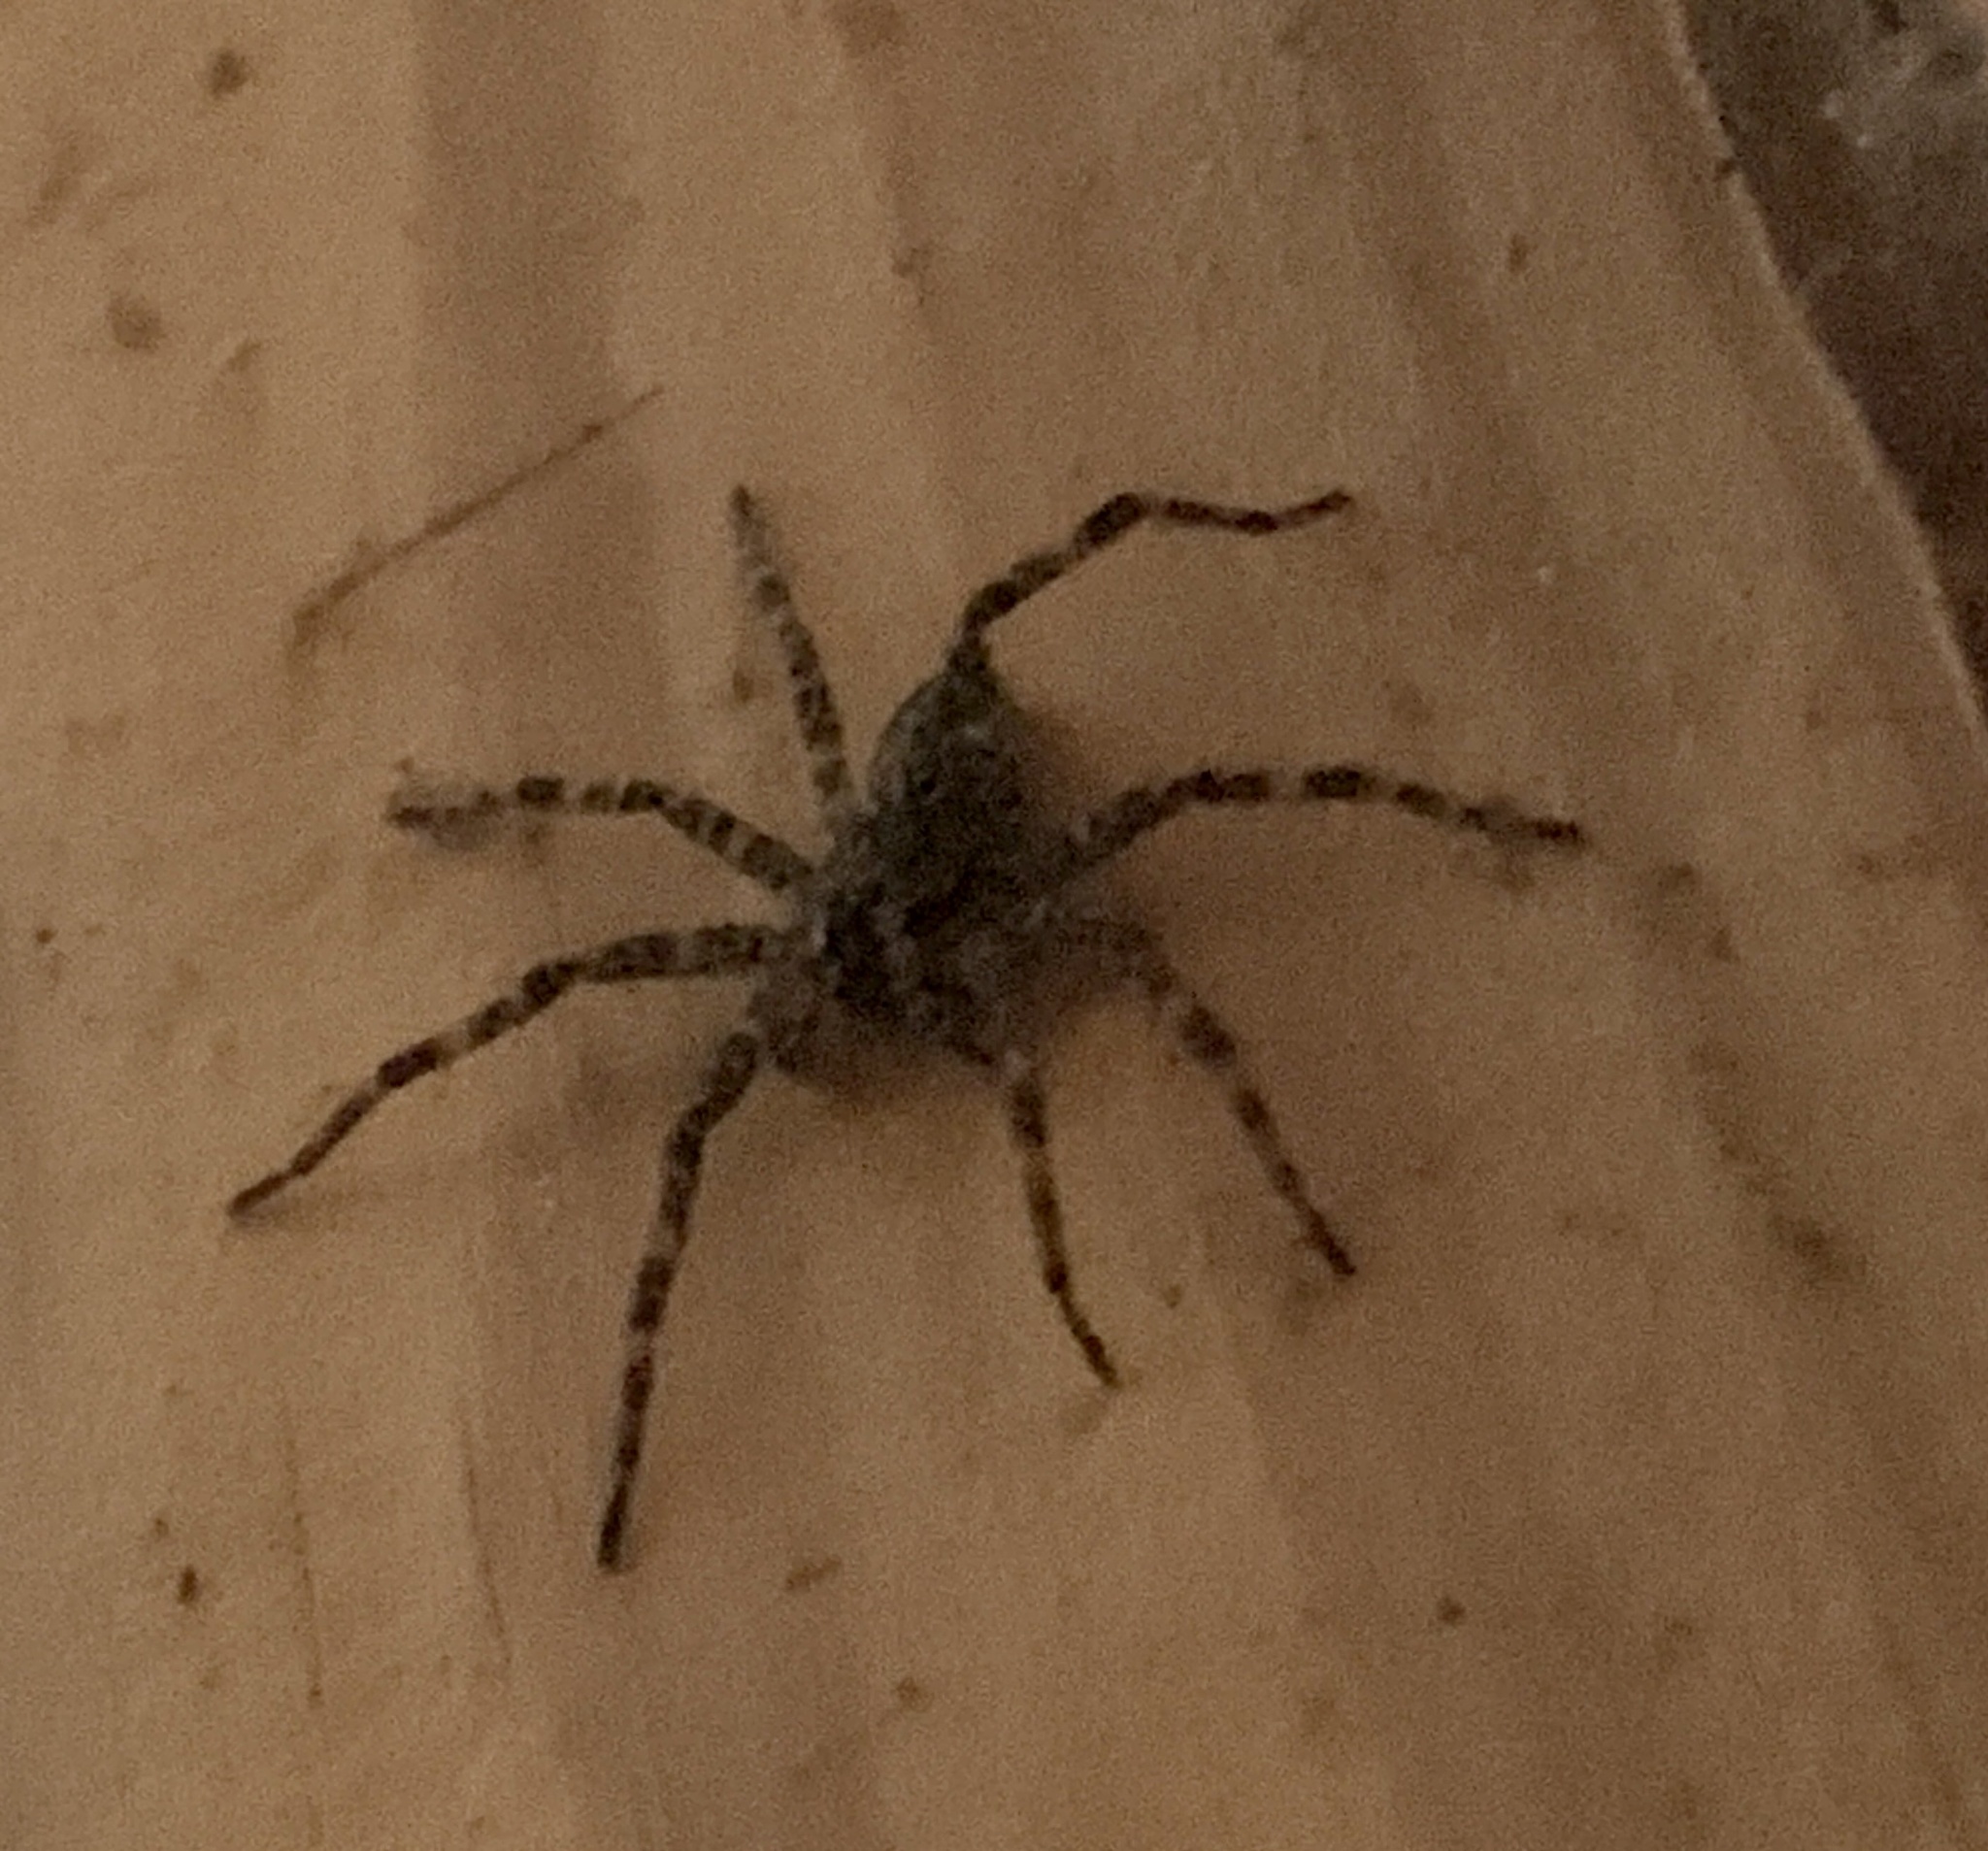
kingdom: Animalia
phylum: Arthropoda
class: Arachnida
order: Araneae
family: Pisauridae
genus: Dolomedes
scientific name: Dolomedes tenebrosus
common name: Dark fishing spider
